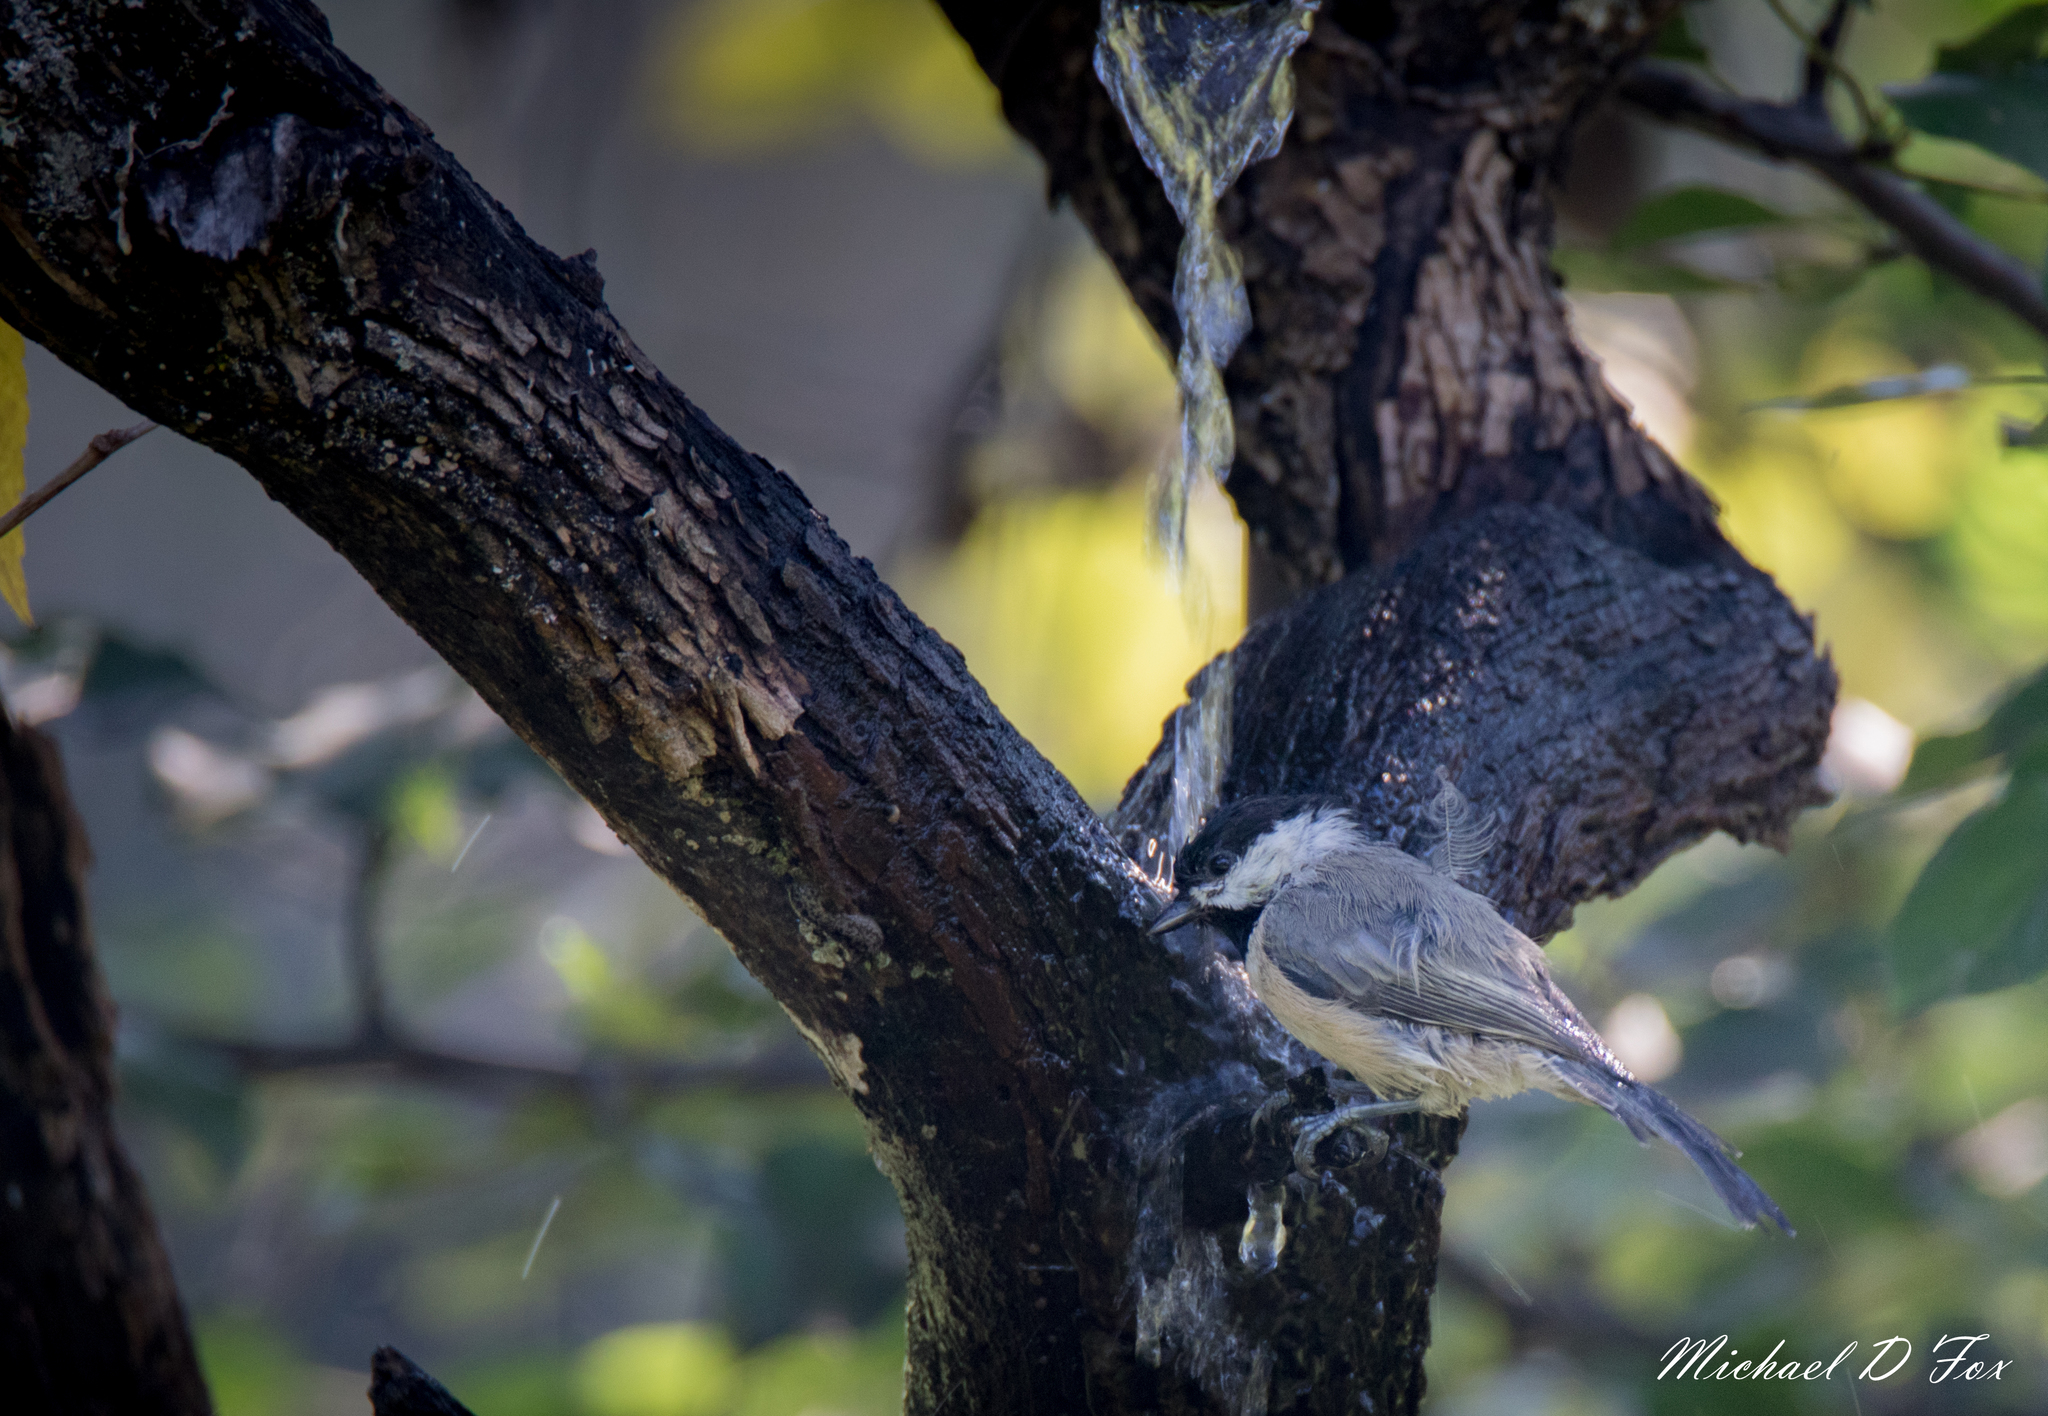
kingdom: Animalia
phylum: Chordata
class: Aves
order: Passeriformes
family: Paridae
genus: Poecile
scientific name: Poecile carolinensis
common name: Carolina chickadee
